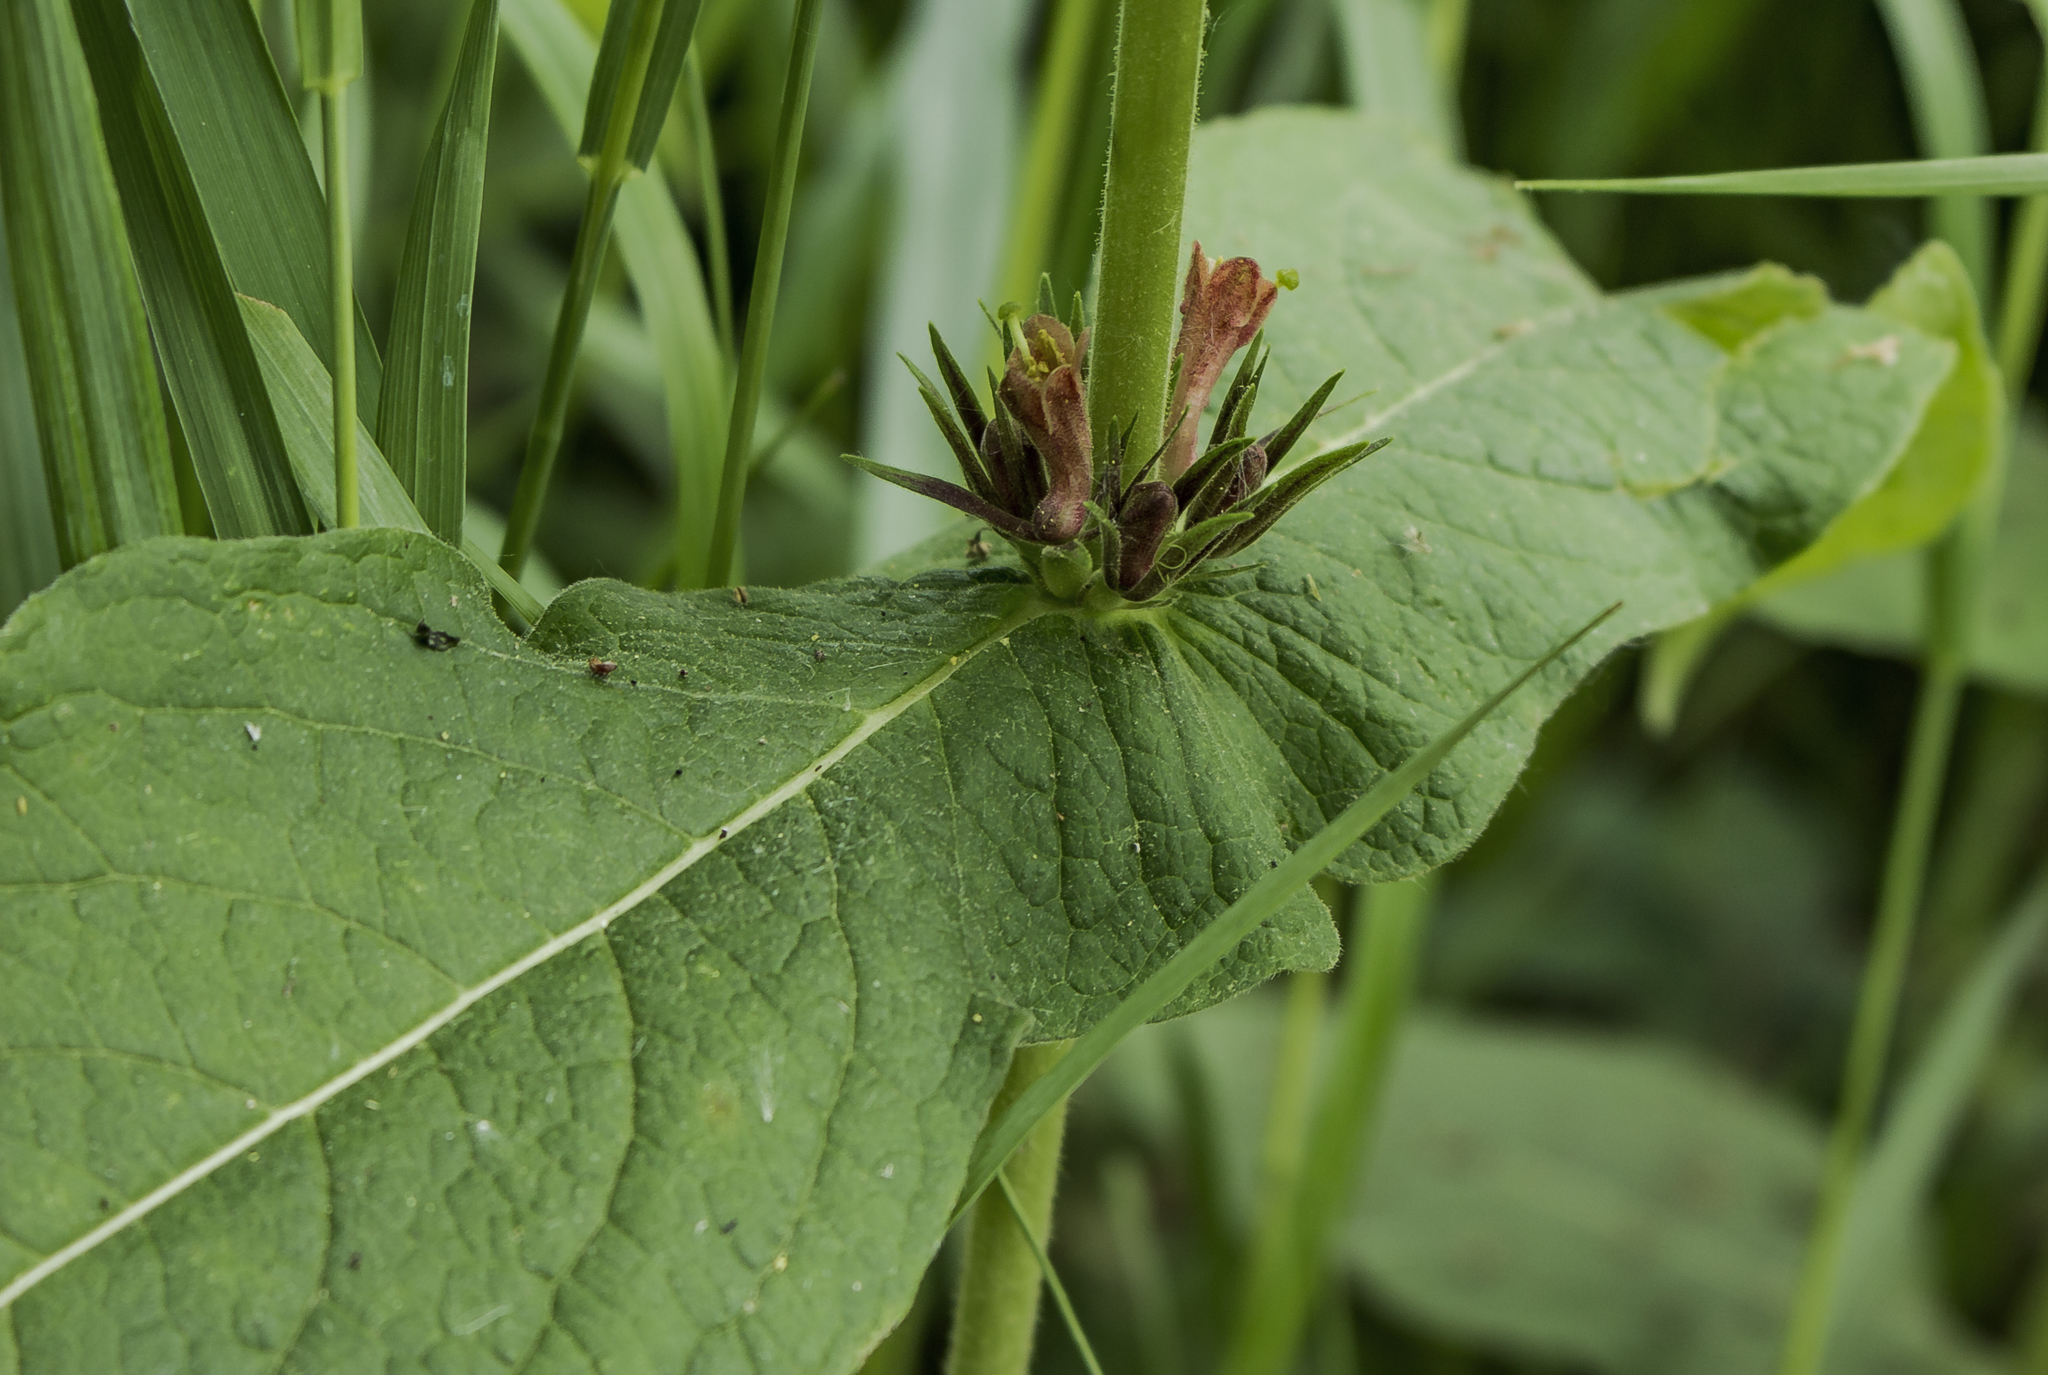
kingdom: Plantae
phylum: Tracheophyta
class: Magnoliopsida
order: Dipsacales
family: Caprifoliaceae
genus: Triosteum
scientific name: Triosteum perfoliatum
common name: Common horse-gentian
